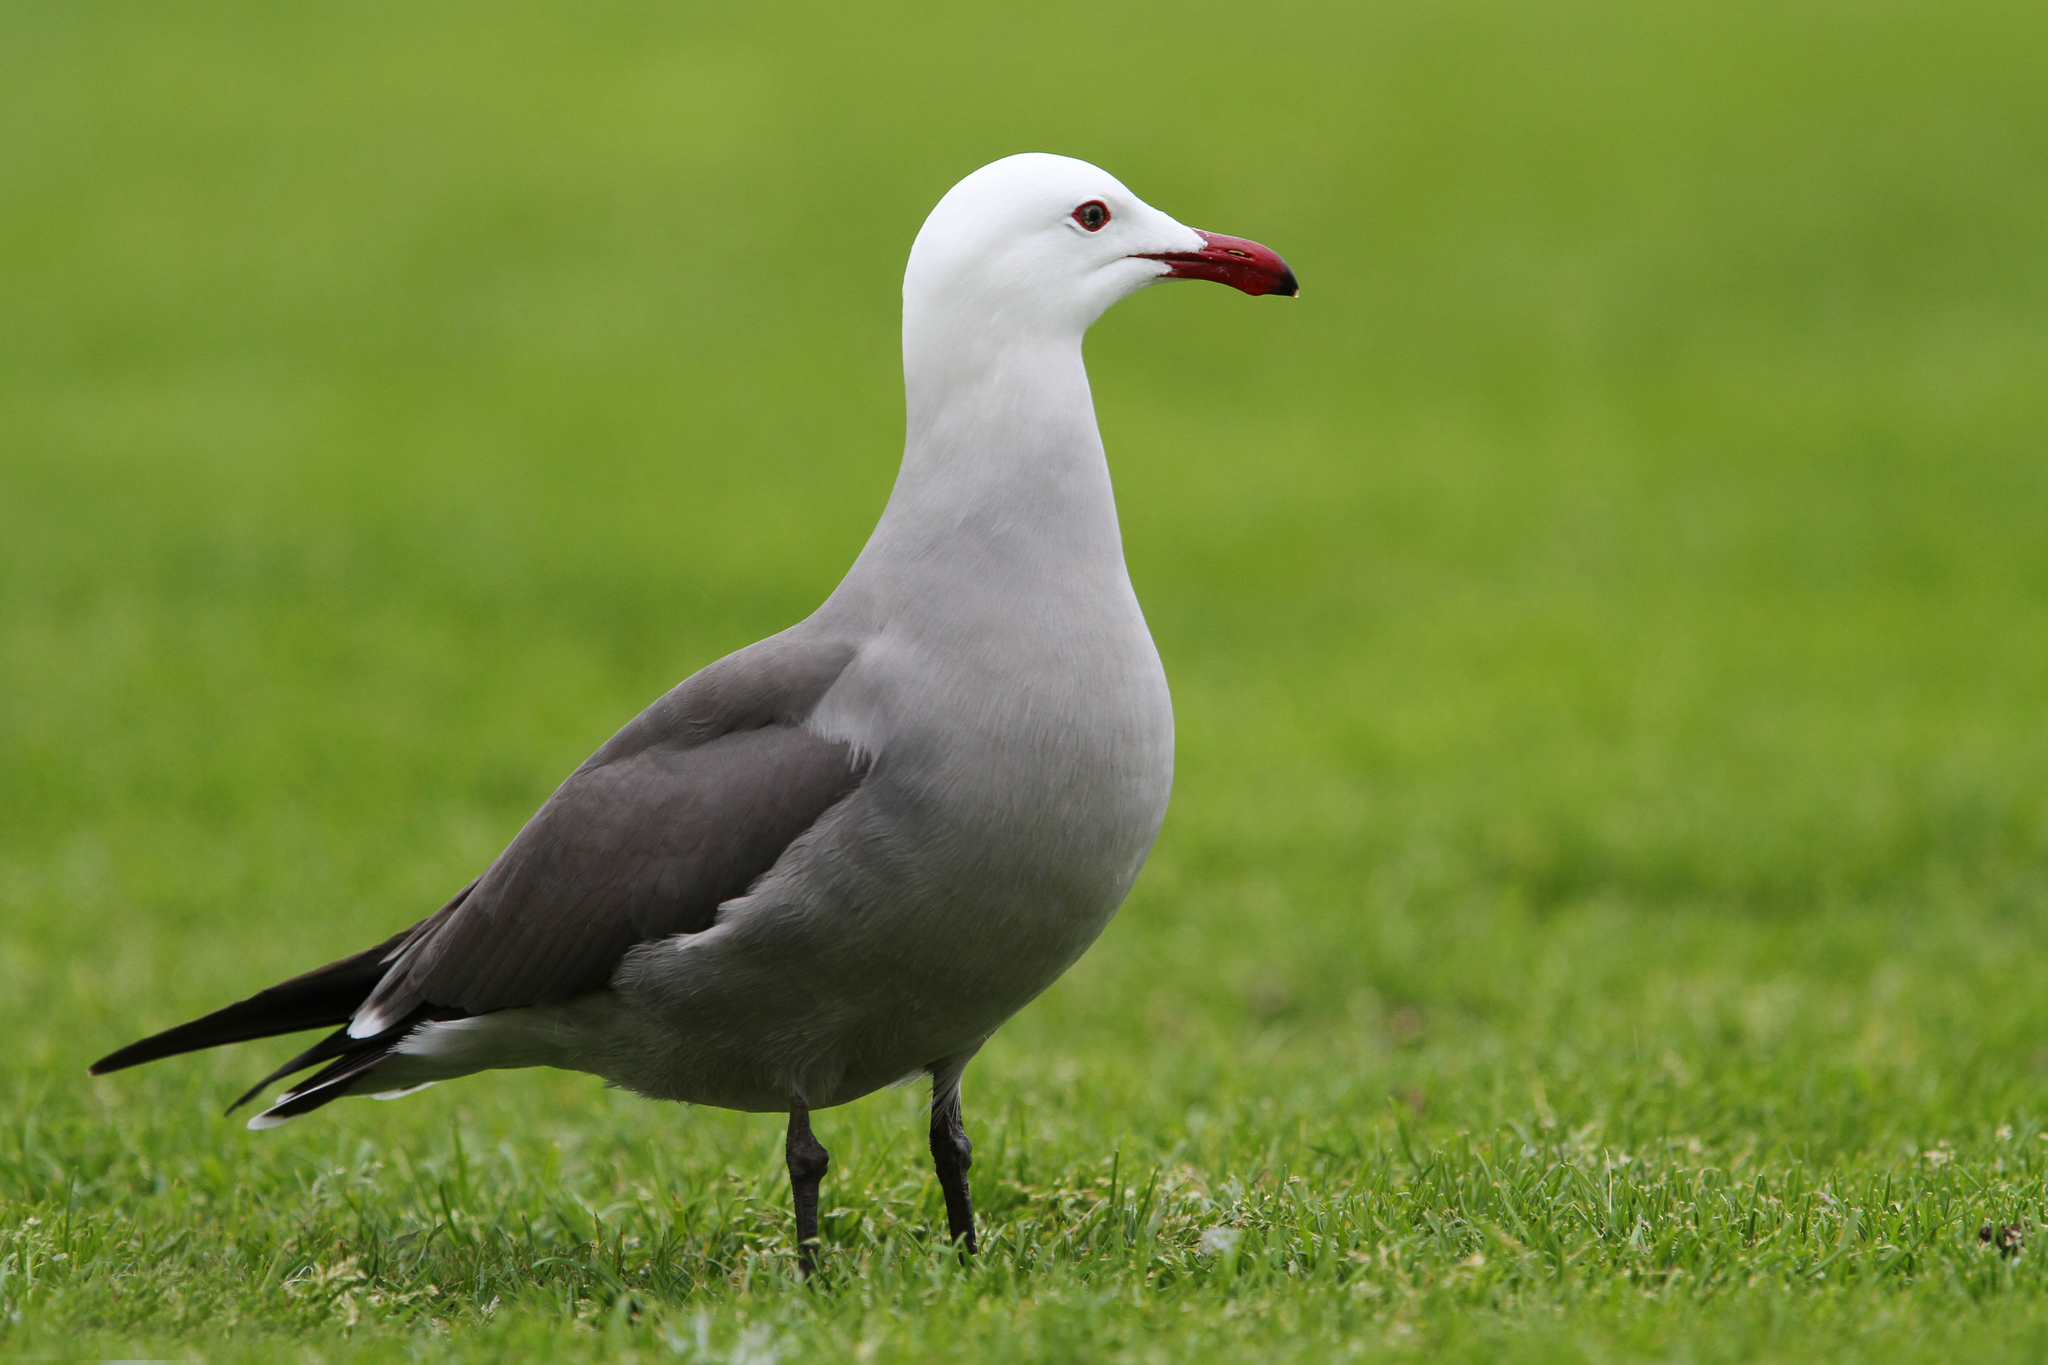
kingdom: Animalia
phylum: Chordata
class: Aves
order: Charadriiformes
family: Laridae
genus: Larus
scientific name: Larus heermanni
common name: Heermann's gull
